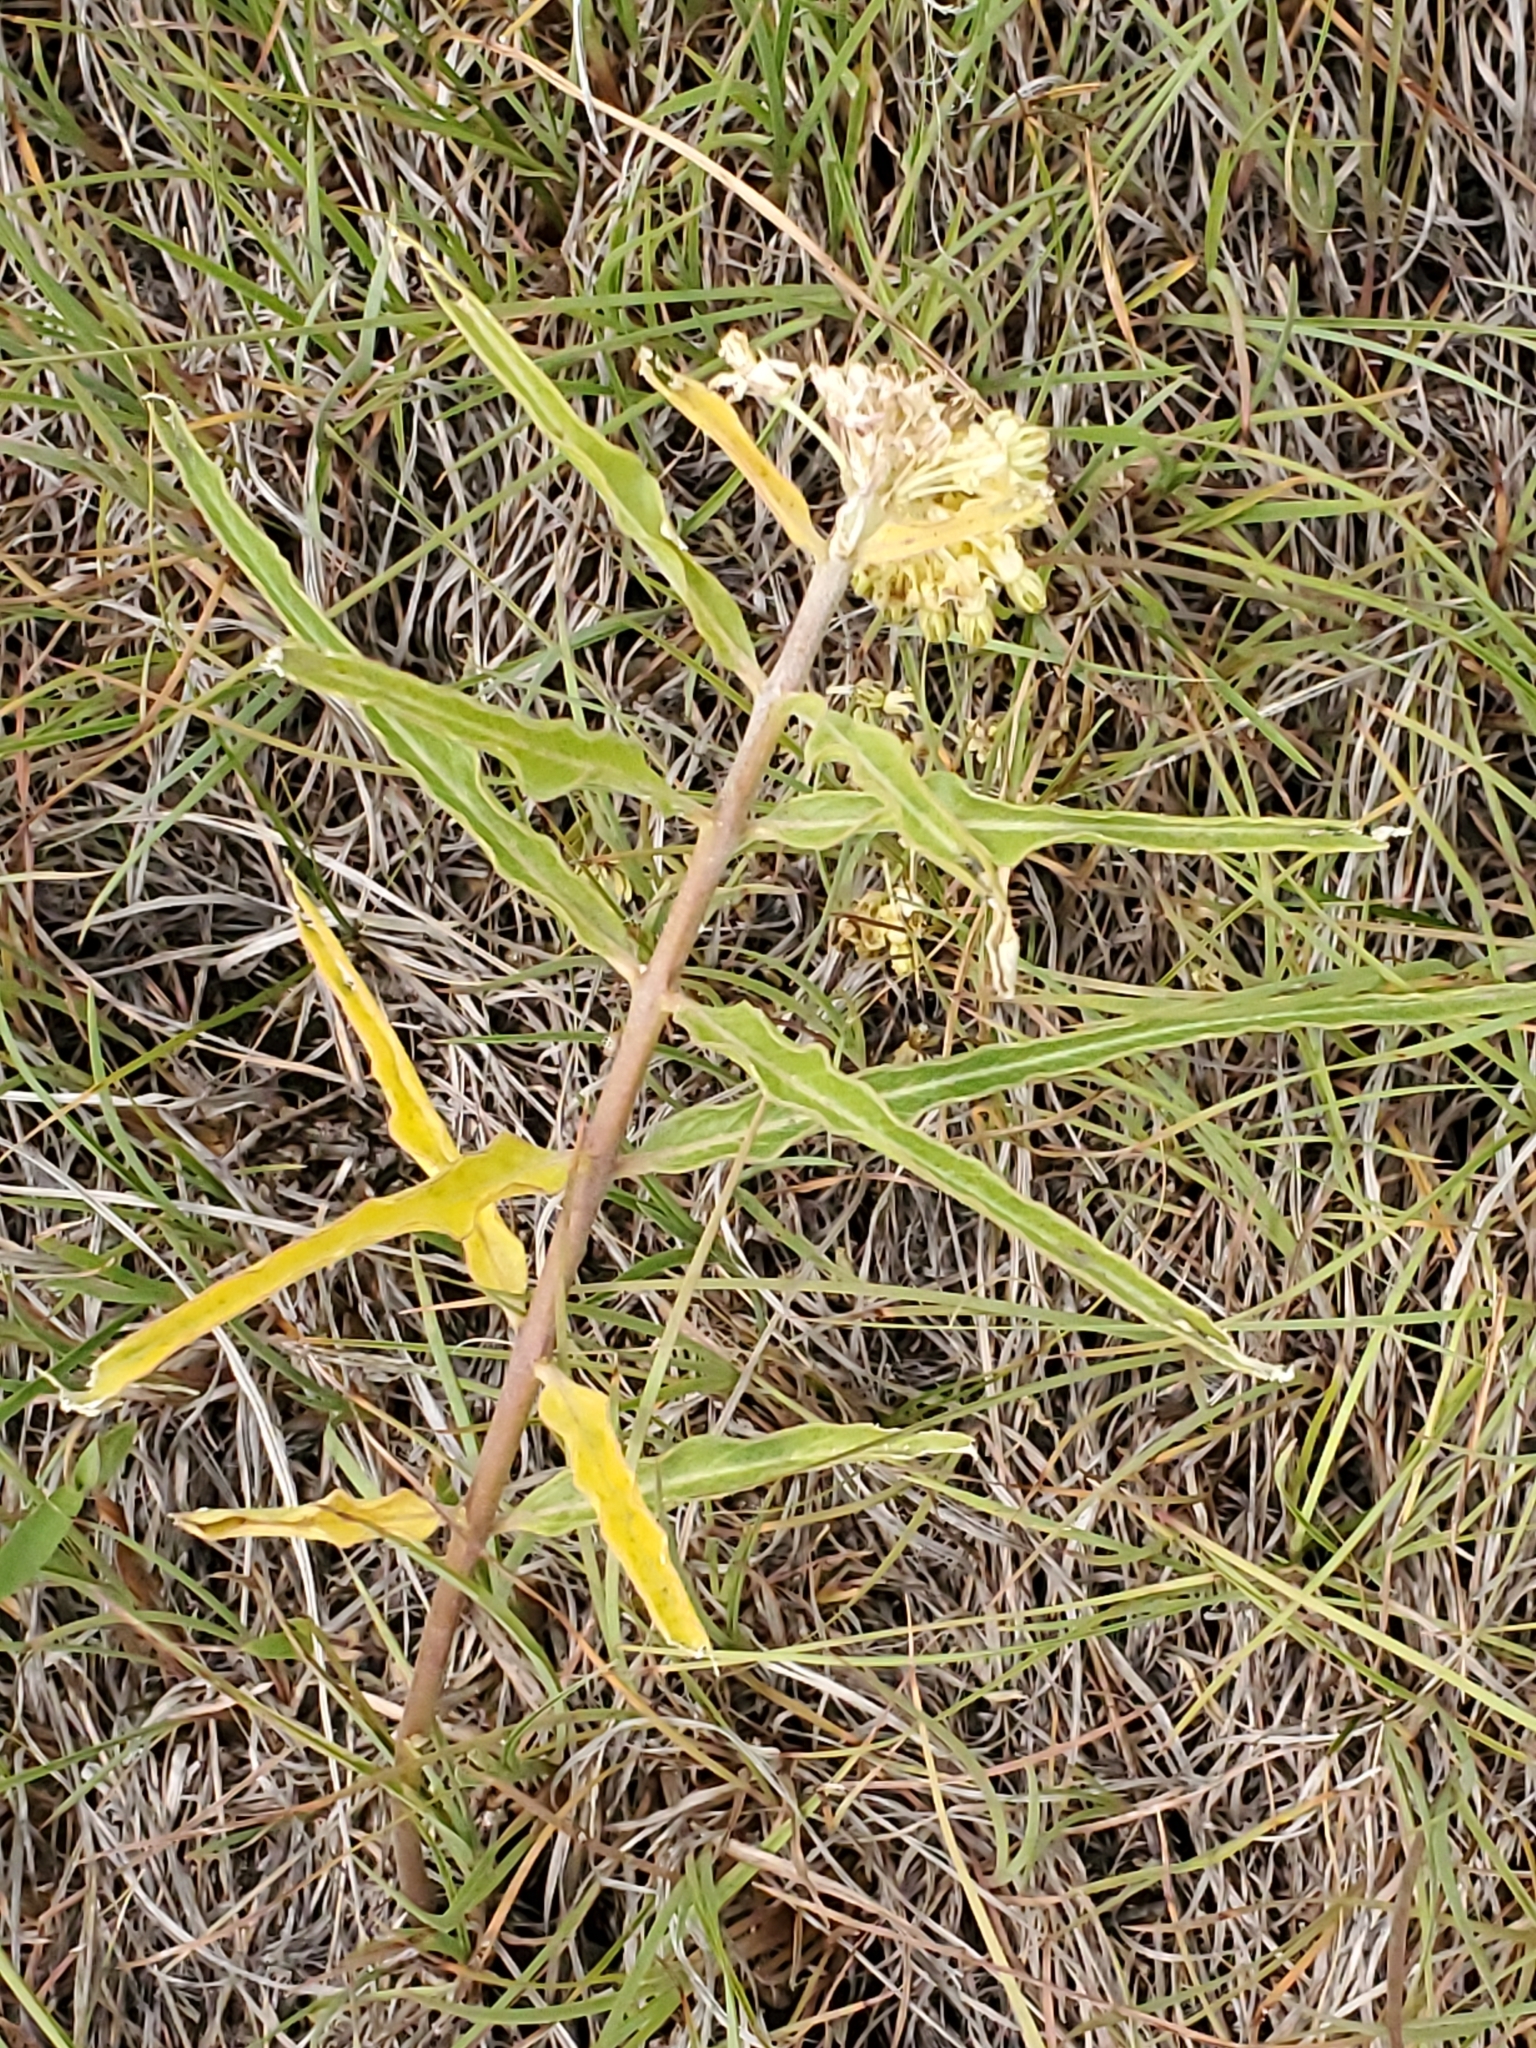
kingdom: Plantae
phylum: Tracheophyta
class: Magnoliopsida
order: Gentianales
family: Apocynaceae
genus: Asclepias
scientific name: Asclepias viridiflora
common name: Green comet milkweed
